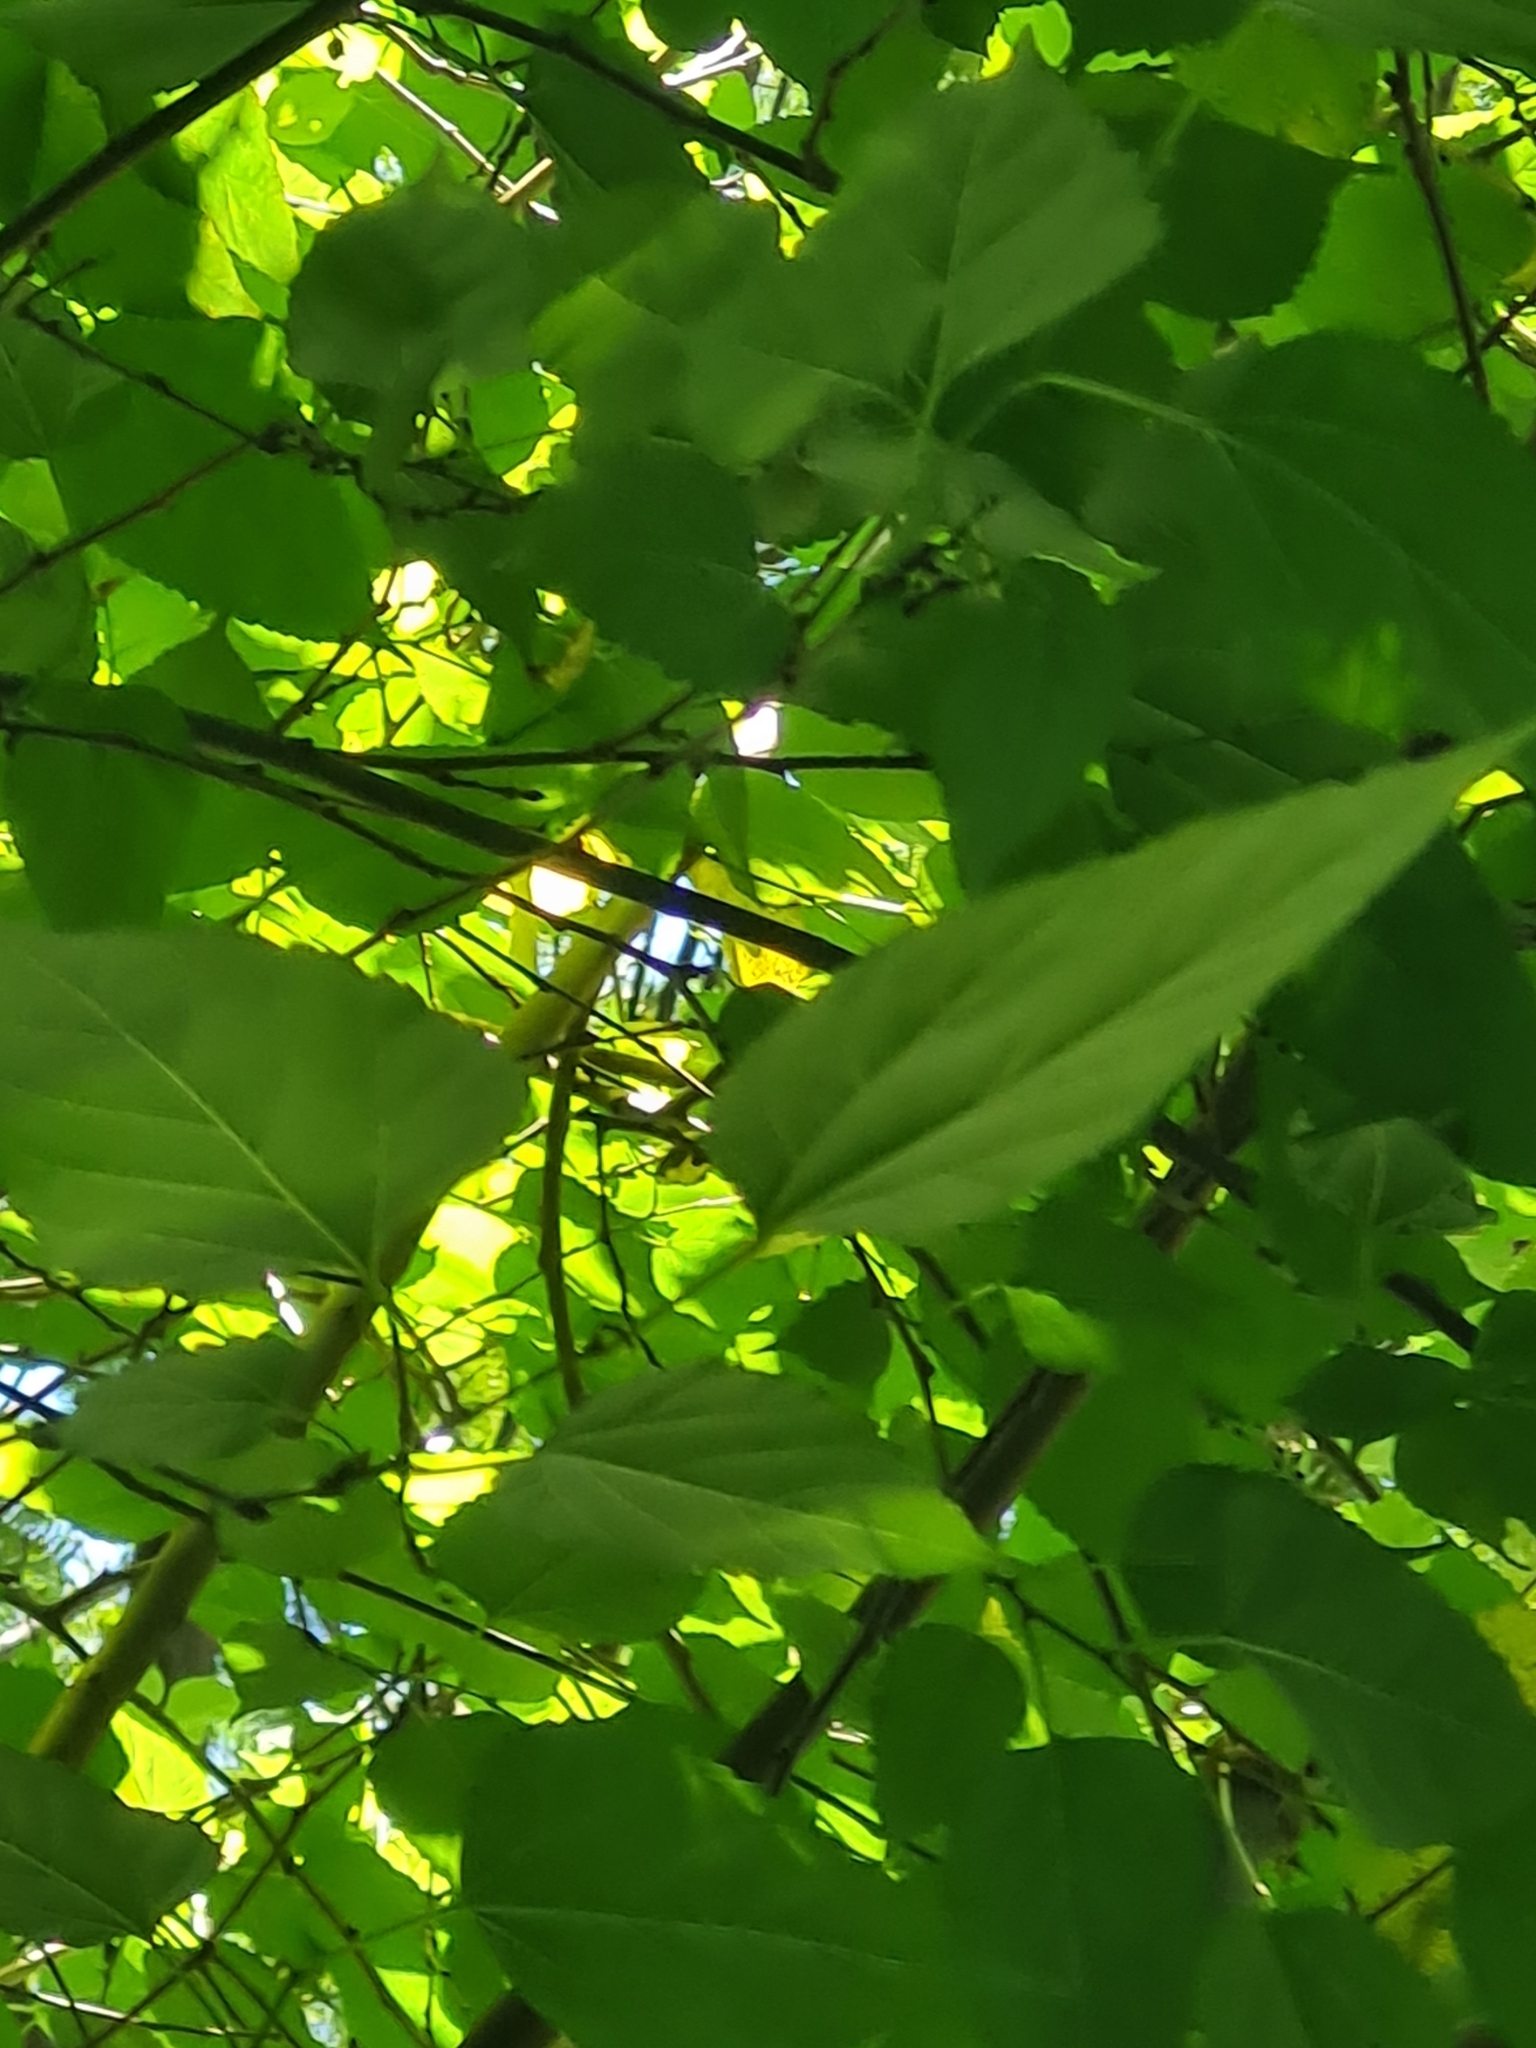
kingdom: Animalia
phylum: Chordata
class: Aves
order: Cuculiformes
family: Cuculidae
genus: Piaya
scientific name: Piaya cayana
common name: Squirrel cuckoo
